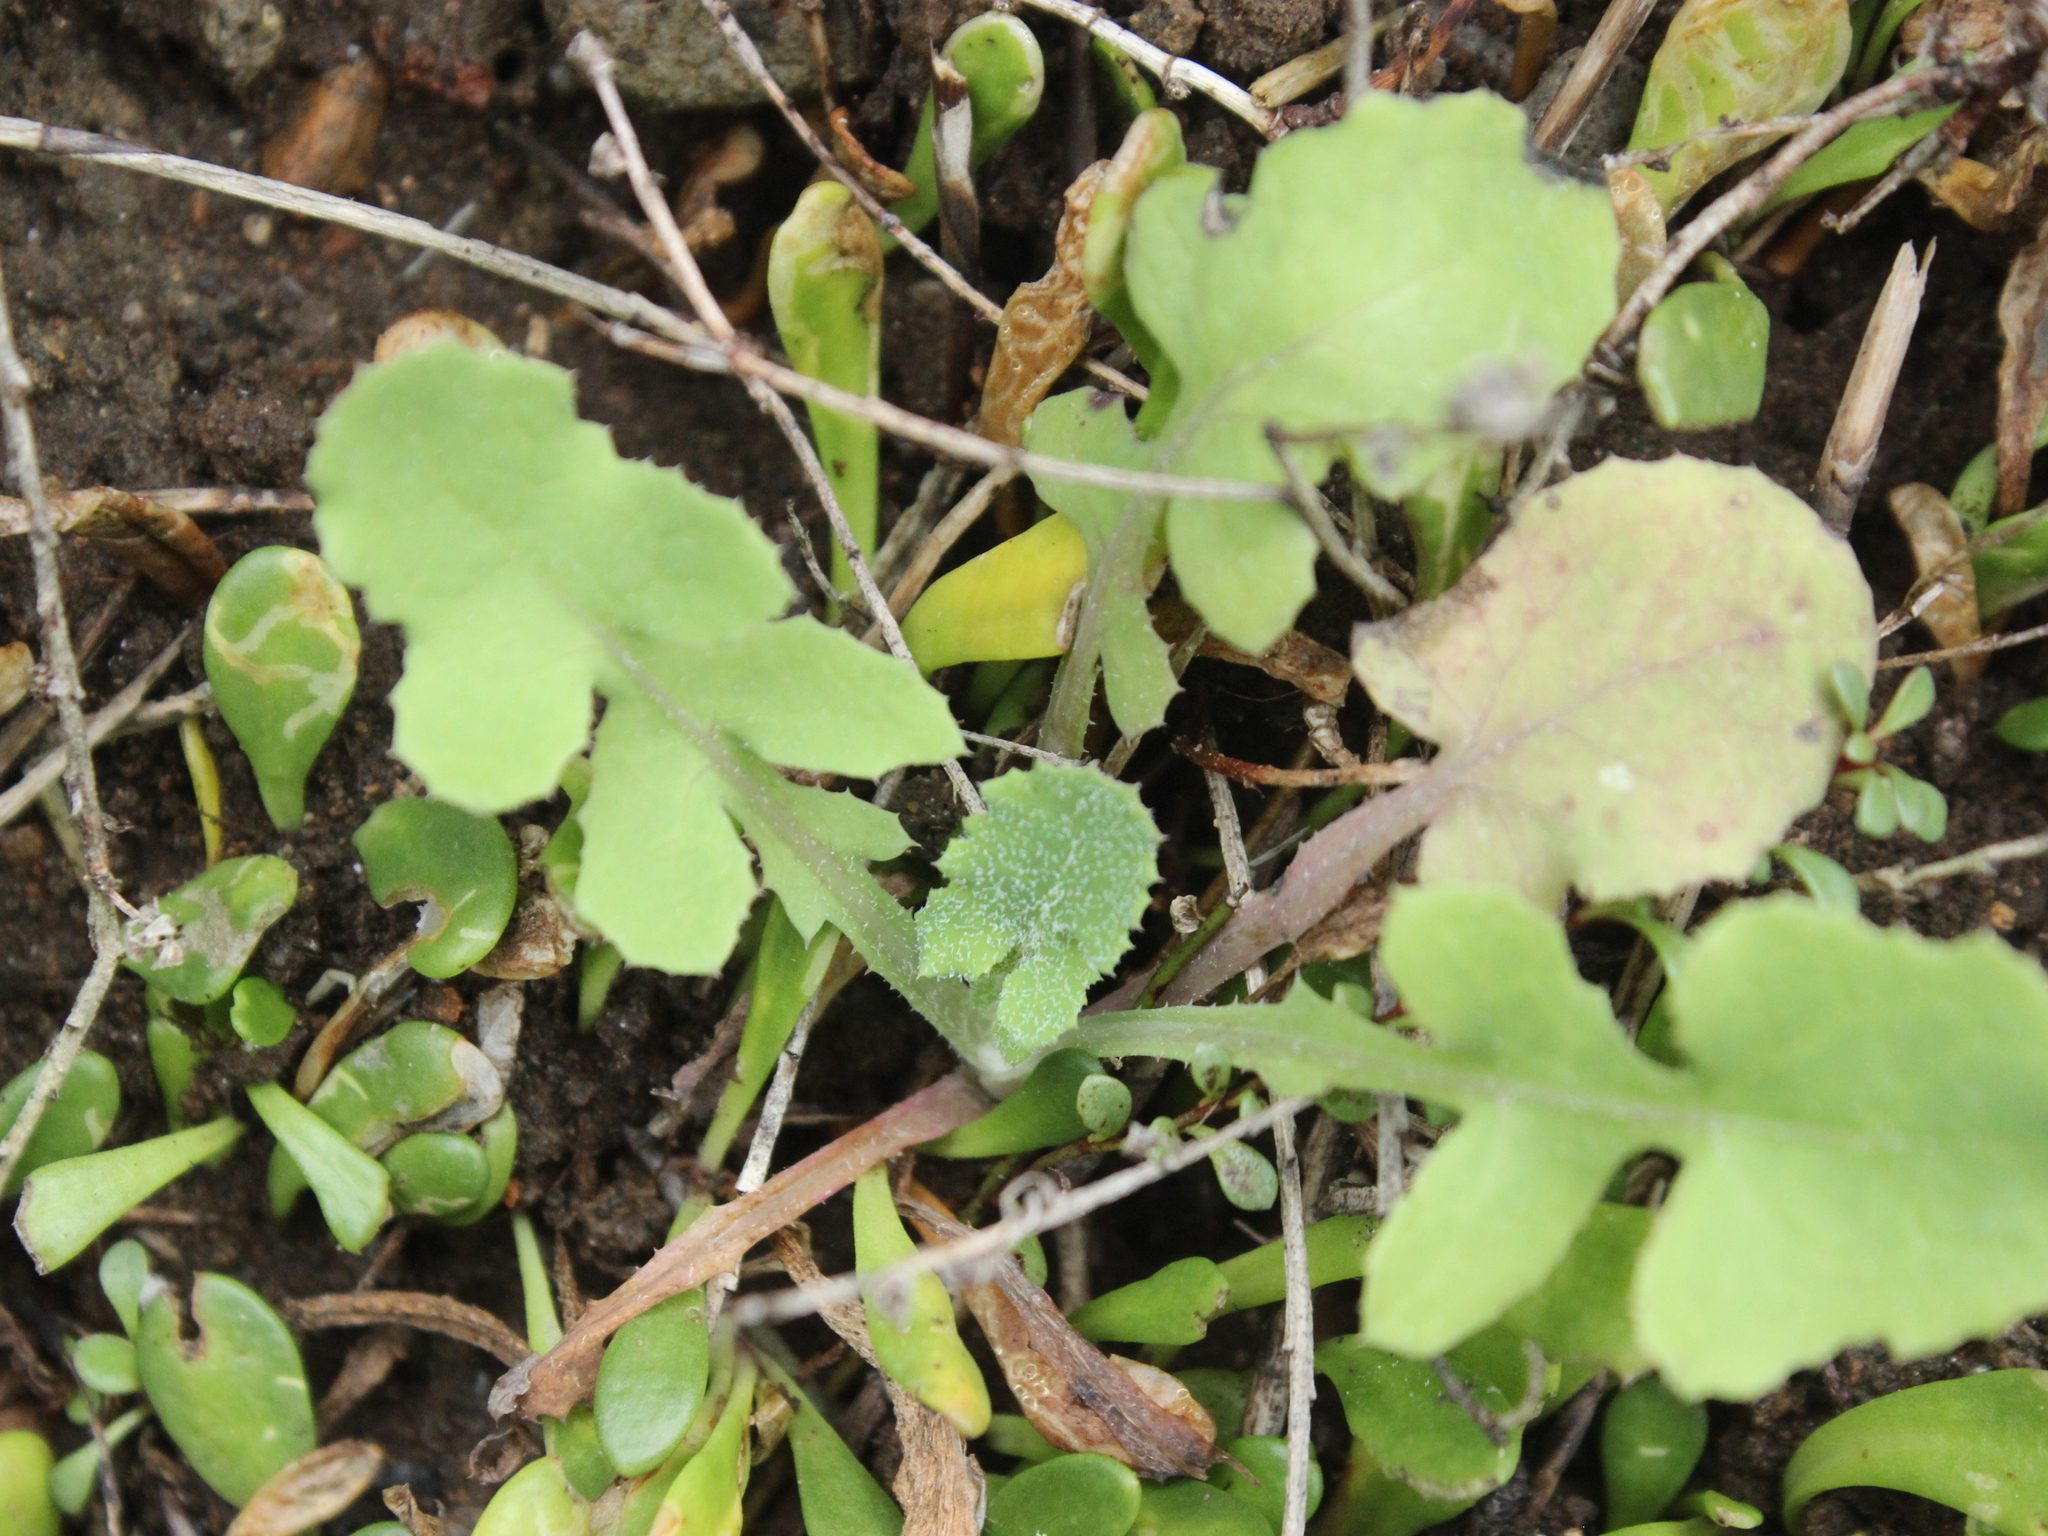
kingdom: Plantae
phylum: Tracheophyta
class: Magnoliopsida
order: Asterales
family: Asteraceae
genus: Sonchus
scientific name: Sonchus oleraceus
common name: Common sowthistle
